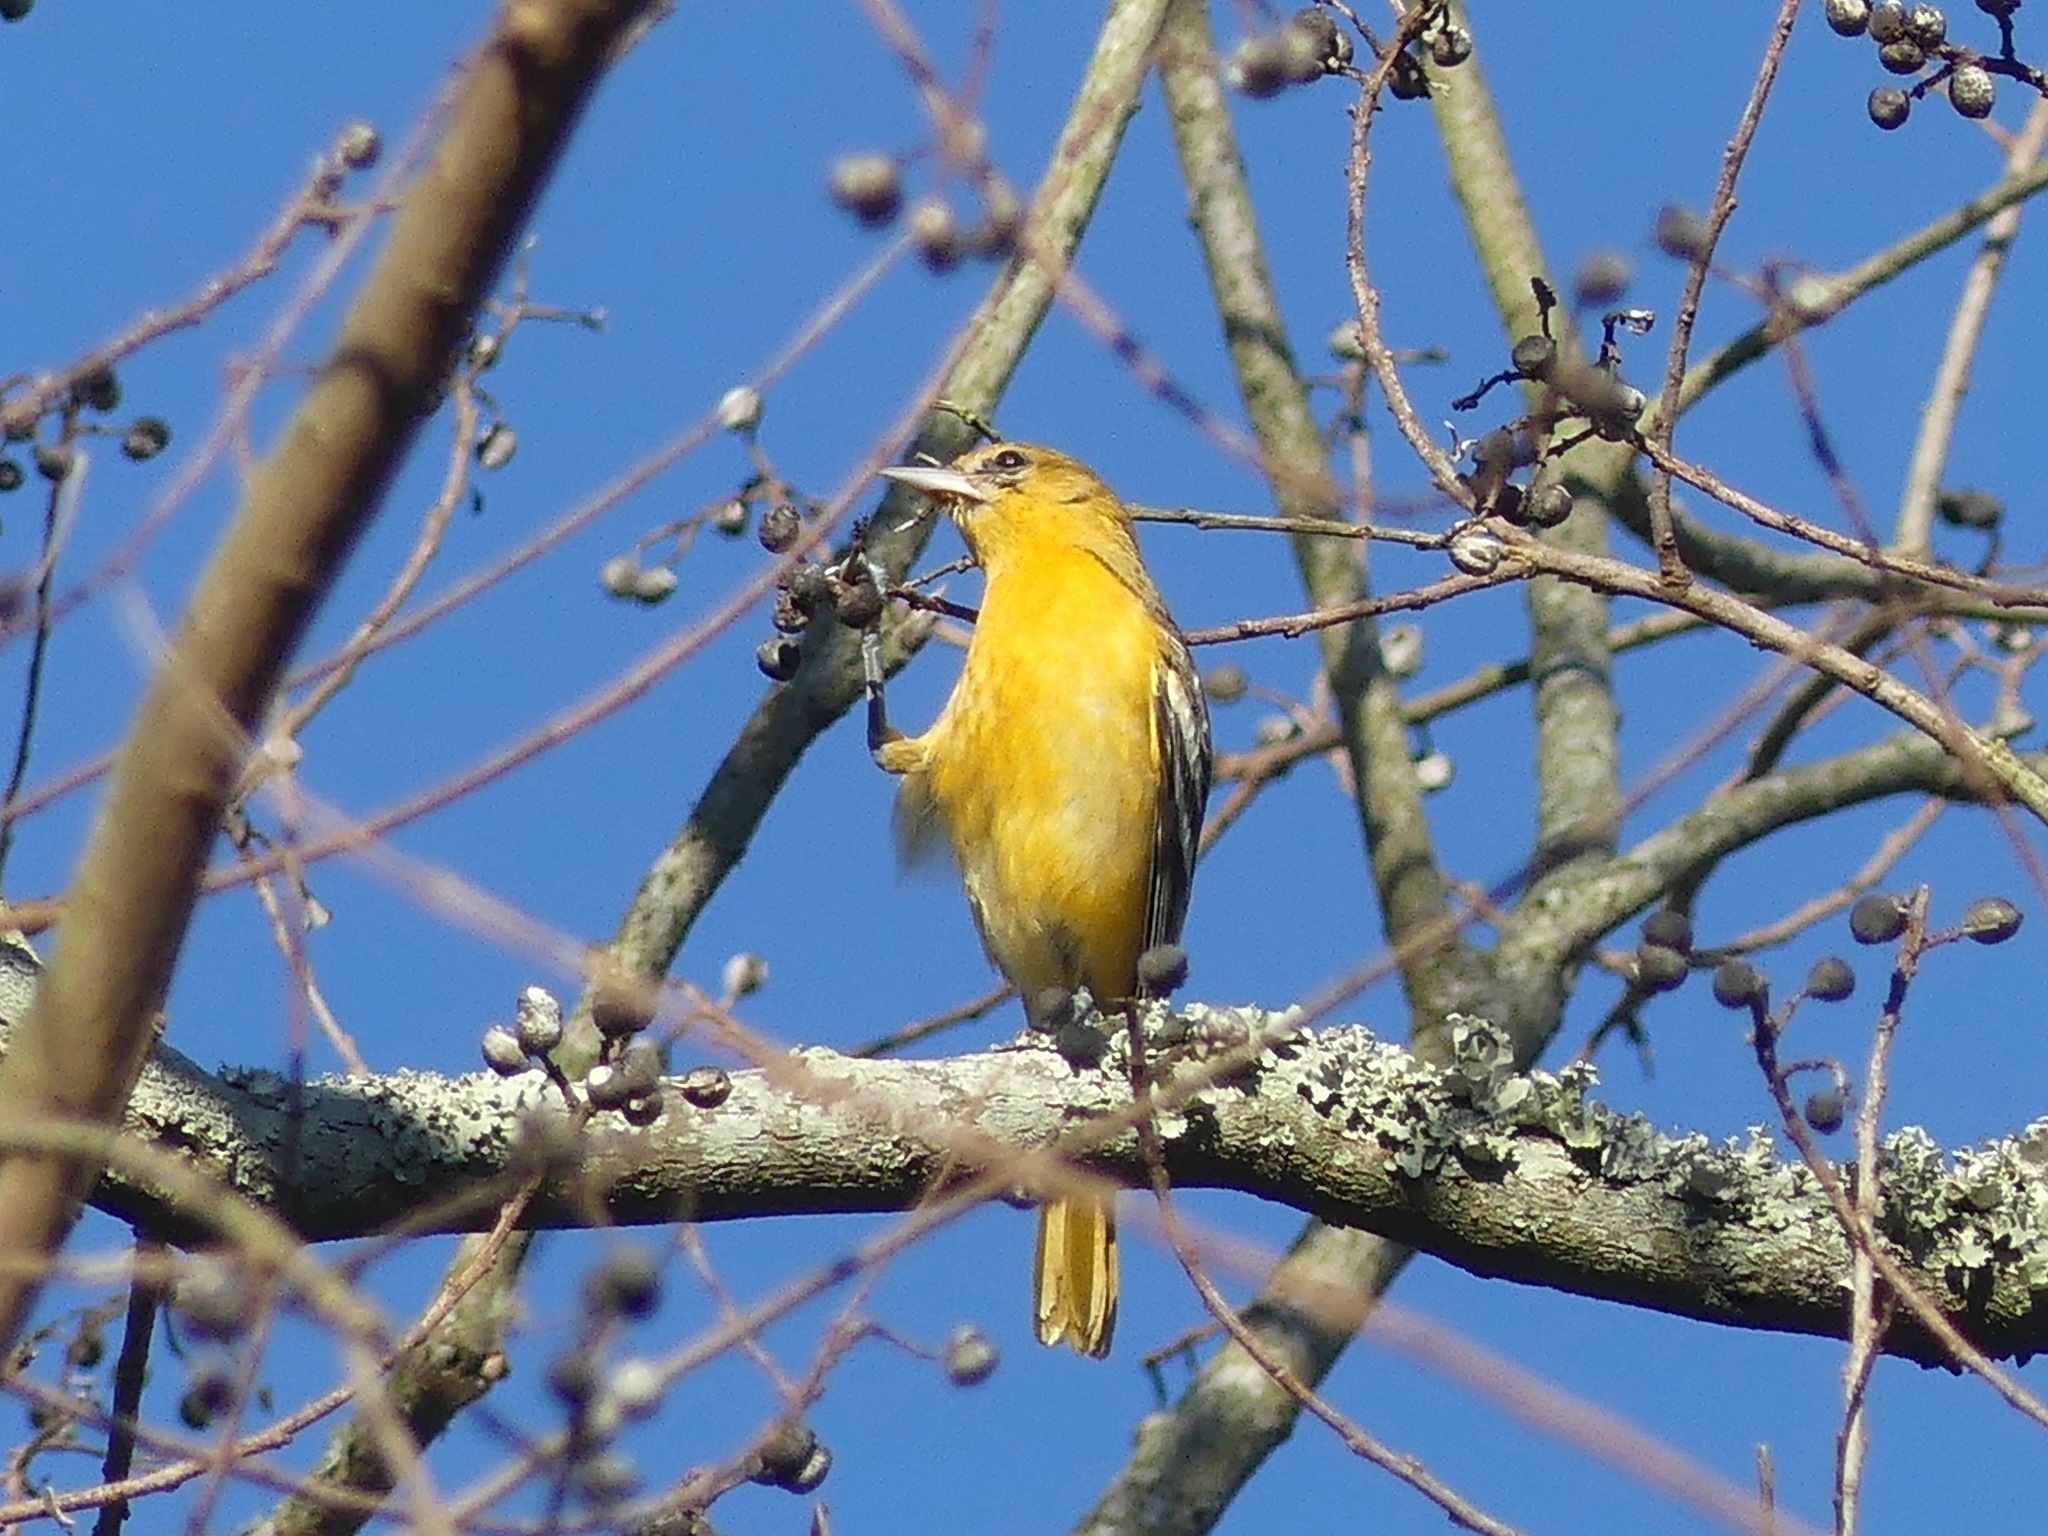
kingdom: Animalia
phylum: Chordata
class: Aves
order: Passeriformes
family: Icteridae
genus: Icterus
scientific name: Icterus galbula
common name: Baltimore oriole
